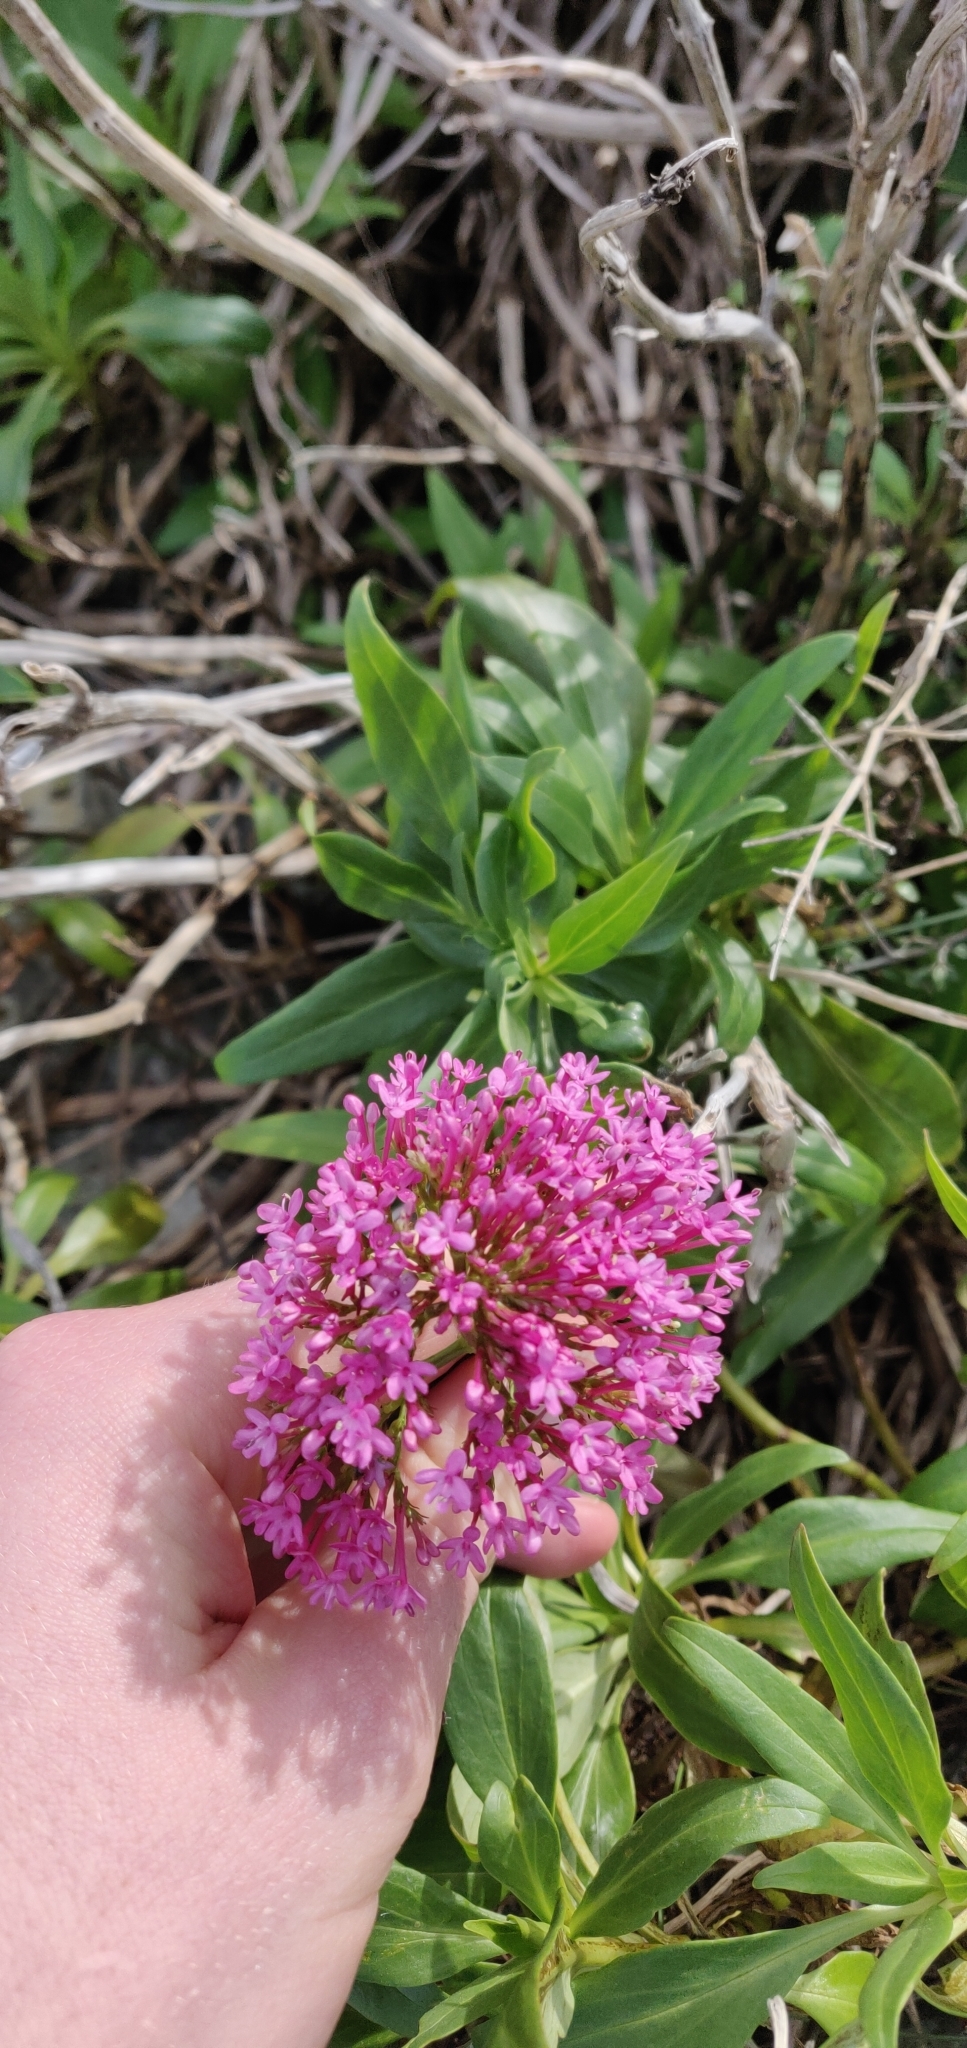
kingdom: Plantae
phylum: Tracheophyta
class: Magnoliopsida
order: Dipsacales
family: Caprifoliaceae
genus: Centranthus
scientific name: Centranthus ruber
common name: Red valerian
